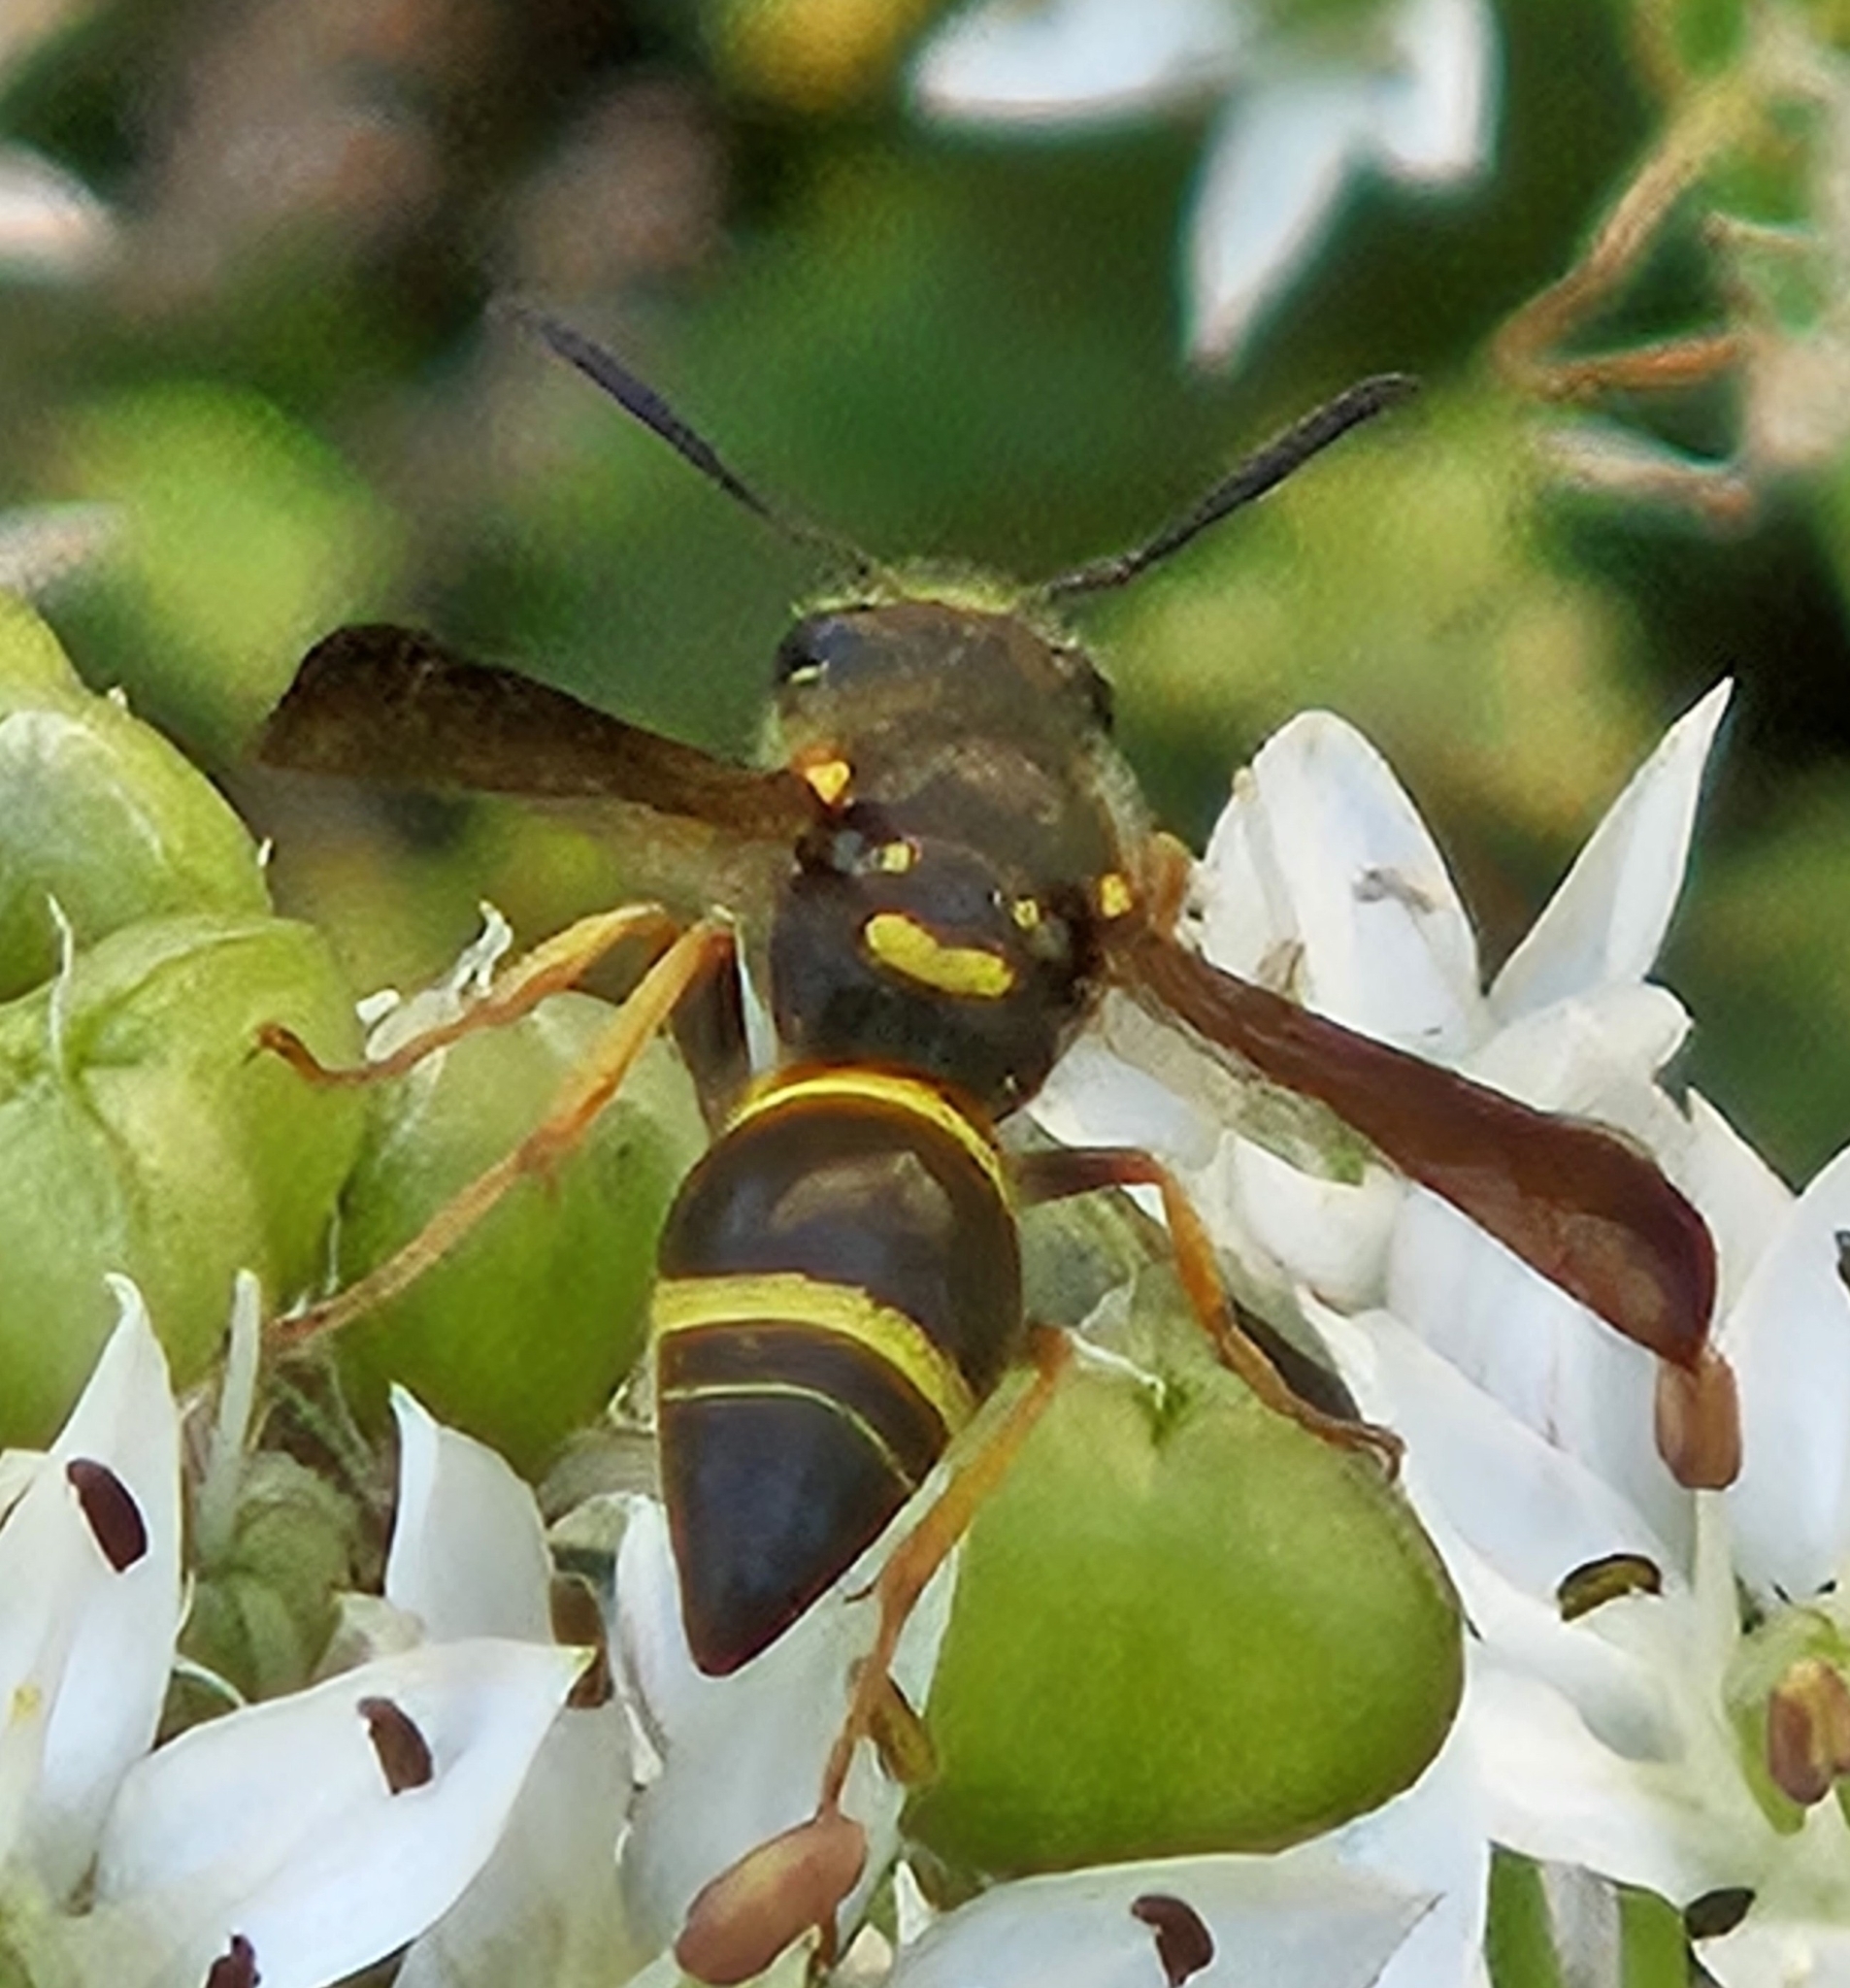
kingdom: Animalia
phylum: Arthropoda
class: Insecta
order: Hymenoptera
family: Vespidae
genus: Ancistrocerus
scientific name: Ancistrocerus campestris
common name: Smiling mason wasp
